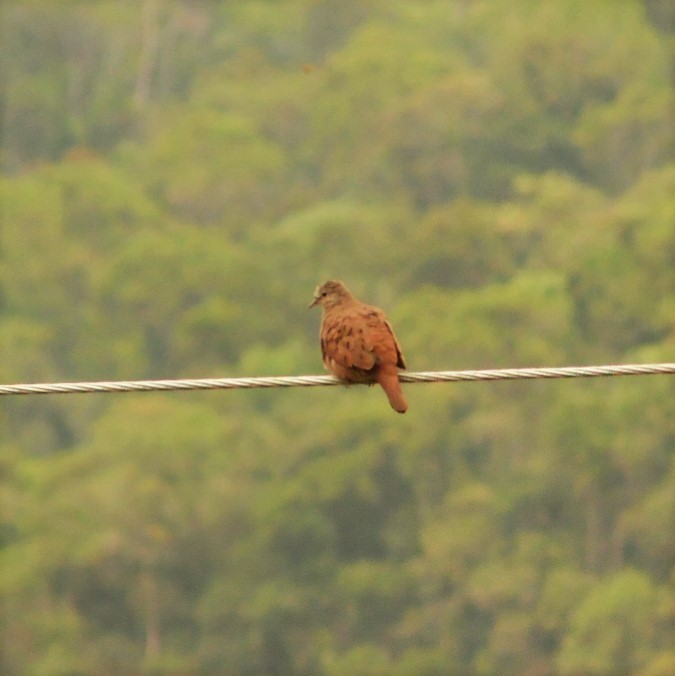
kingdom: Animalia
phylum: Chordata
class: Aves
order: Columbiformes
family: Columbidae
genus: Columbina
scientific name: Columbina talpacoti
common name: Ruddy ground dove
